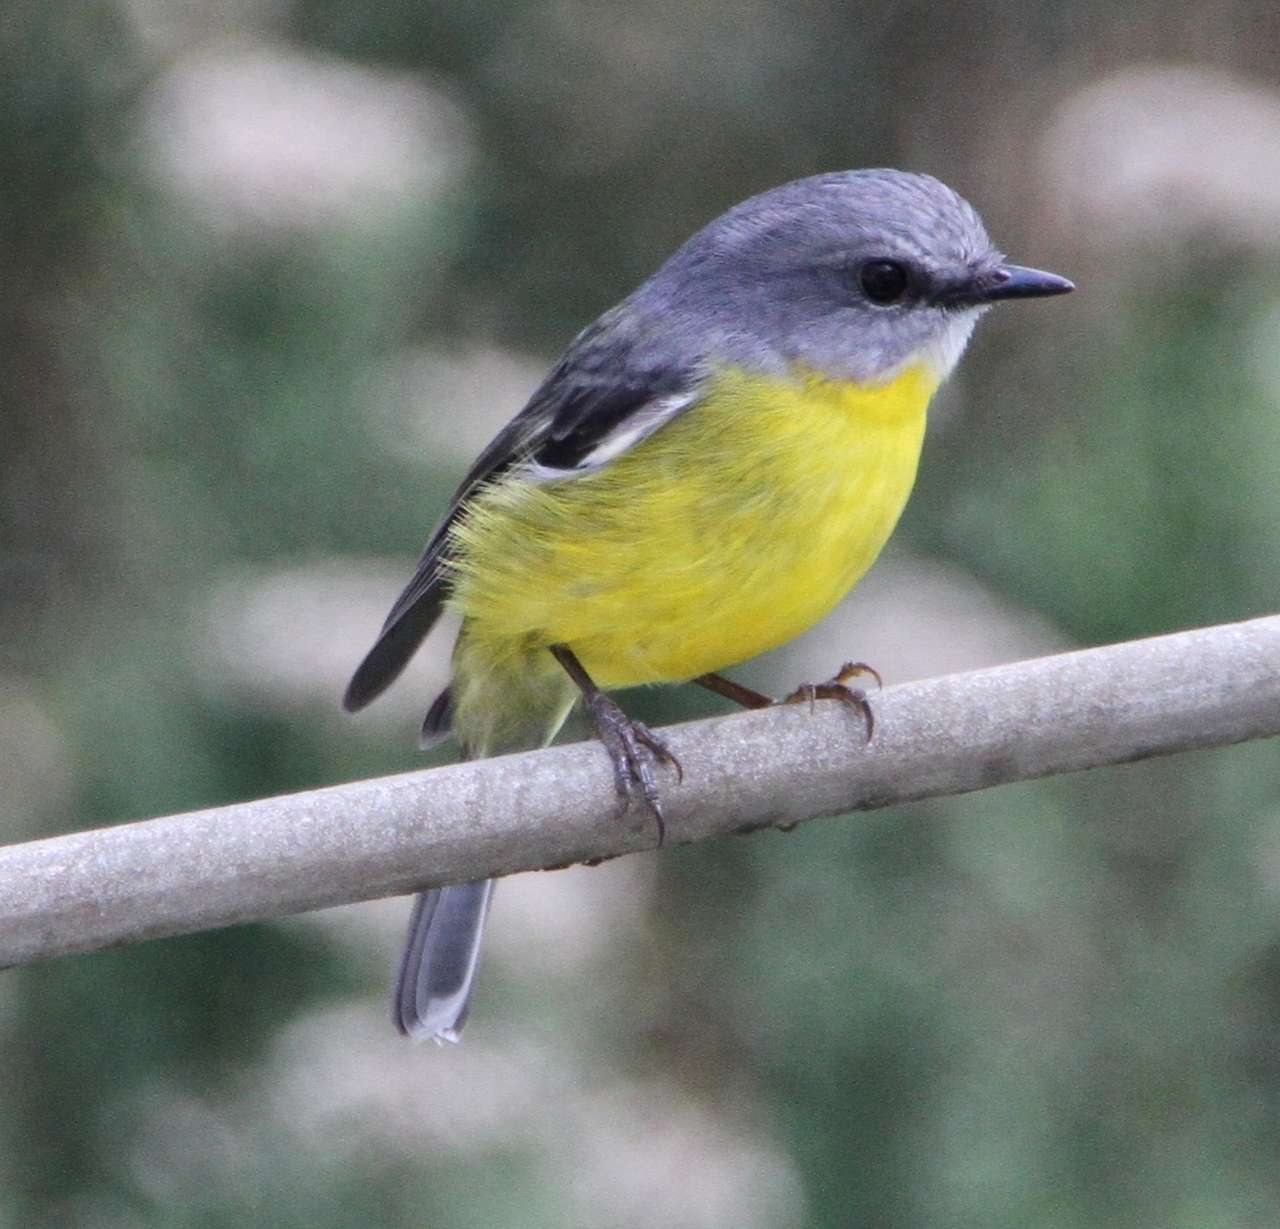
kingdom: Animalia
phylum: Chordata
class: Aves
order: Passeriformes
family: Petroicidae
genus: Eopsaltria
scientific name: Eopsaltria australis
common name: Eastern yellow robin
